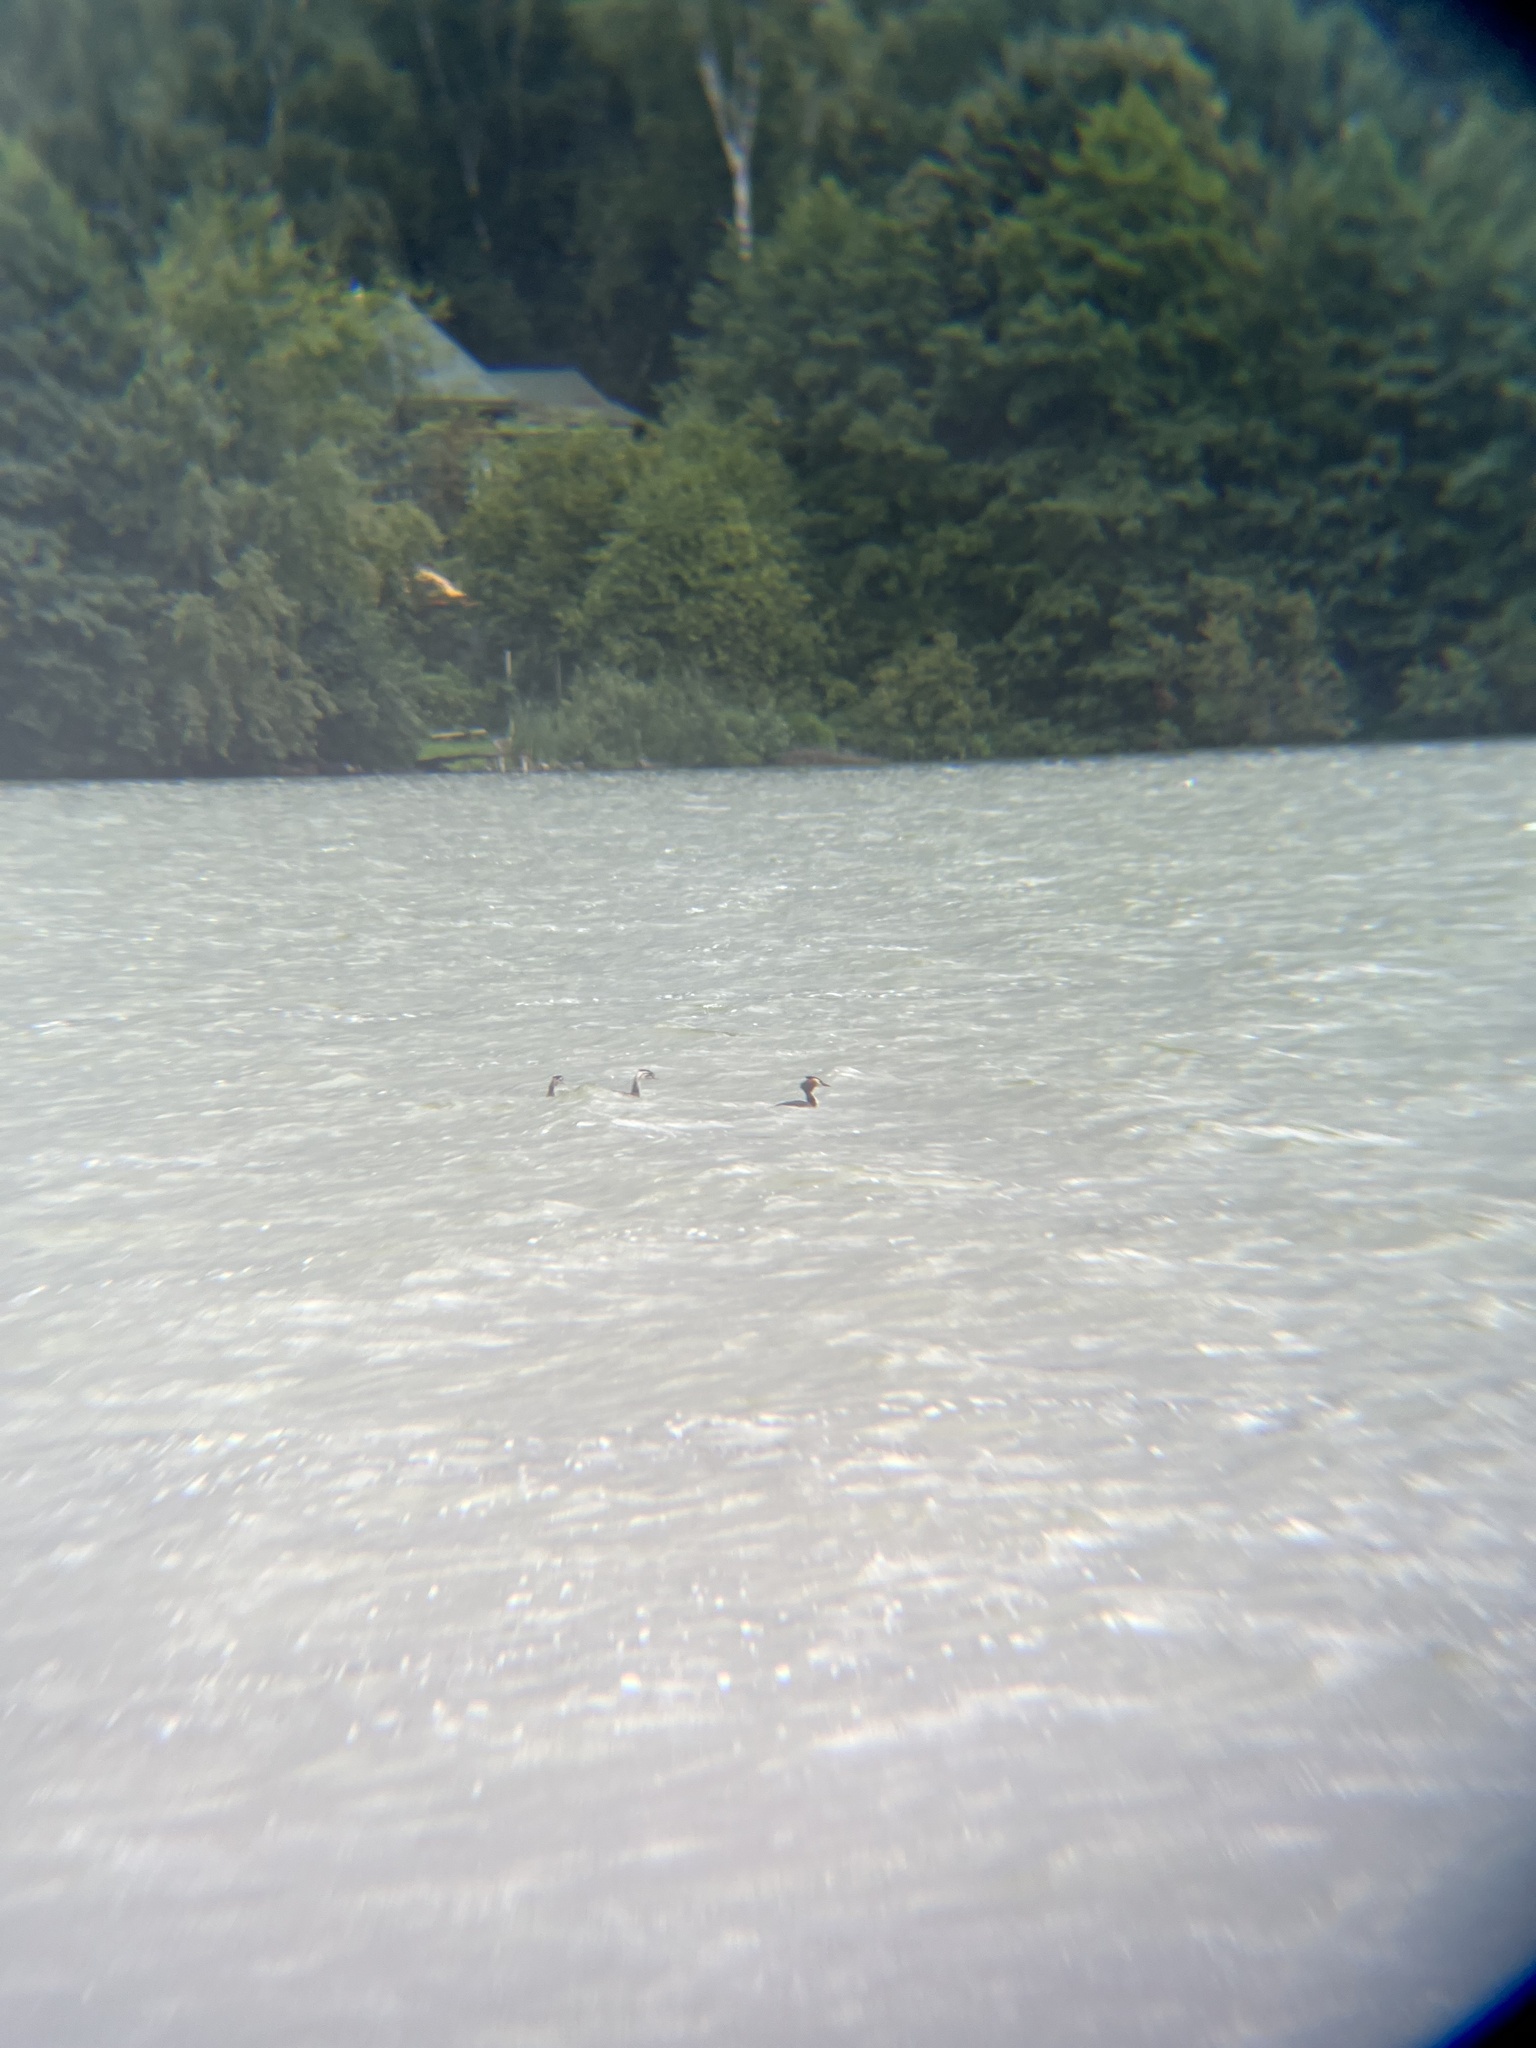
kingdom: Animalia
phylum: Chordata
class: Aves
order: Podicipediformes
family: Podicipedidae
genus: Podiceps
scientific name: Podiceps cristatus
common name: Great crested grebe
